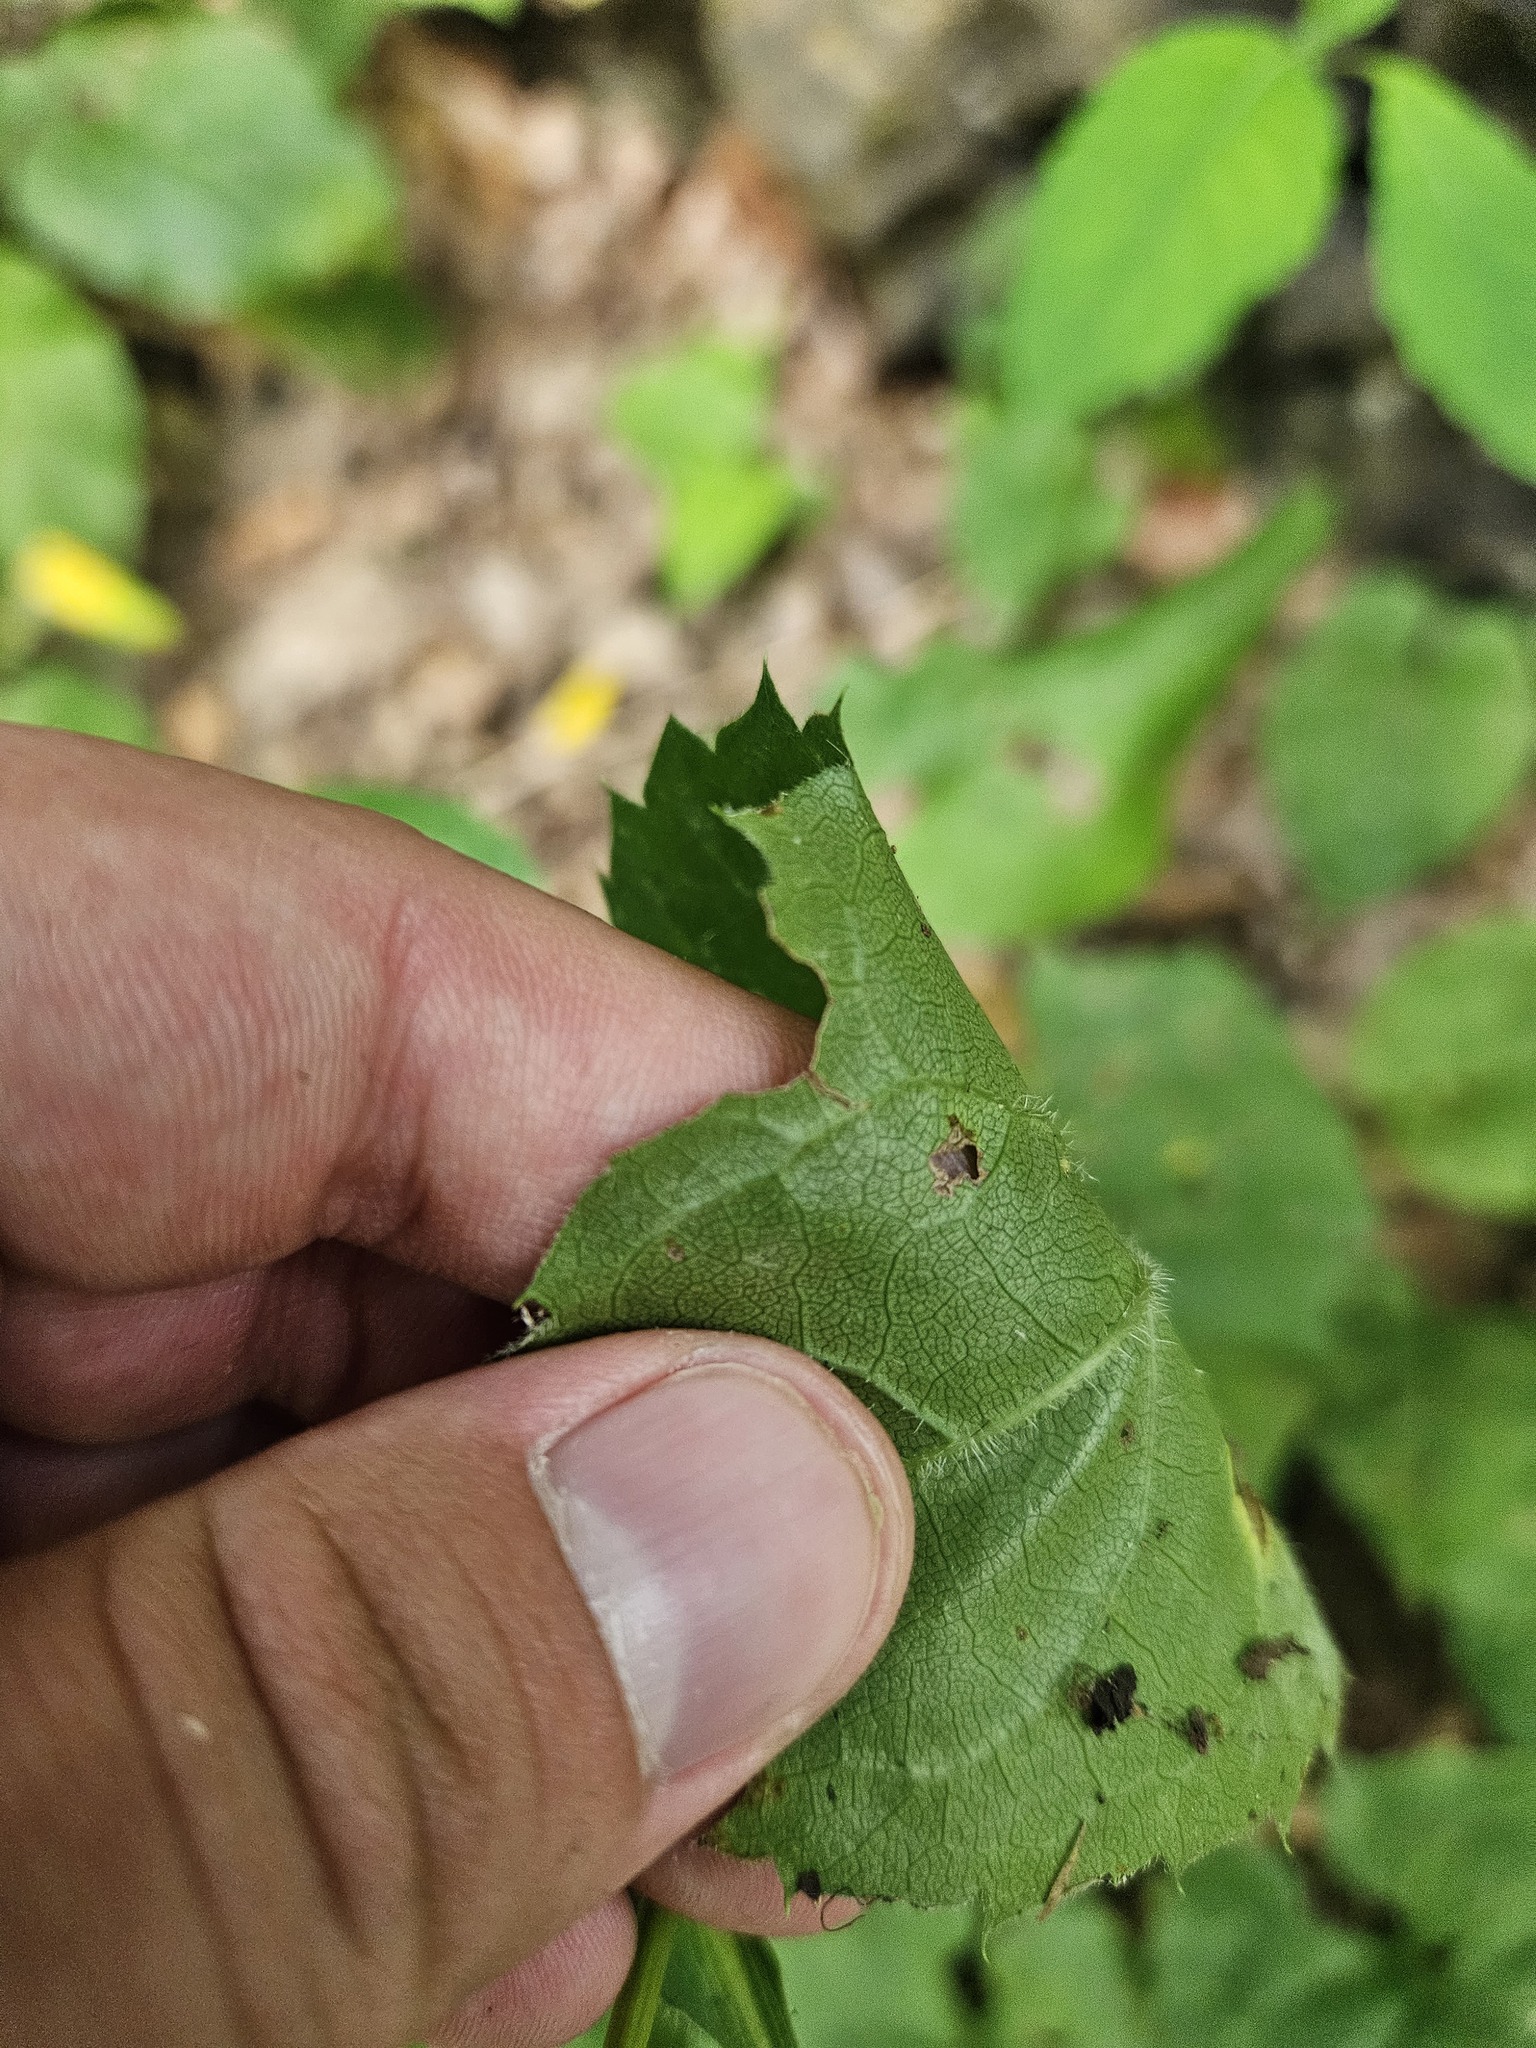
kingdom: Plantae
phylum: Tracheophyta
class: Magnoliopsida
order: Asterales
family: Asteraceae
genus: Eurybia
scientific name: Eurybia schreberi
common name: Schreber's aster
